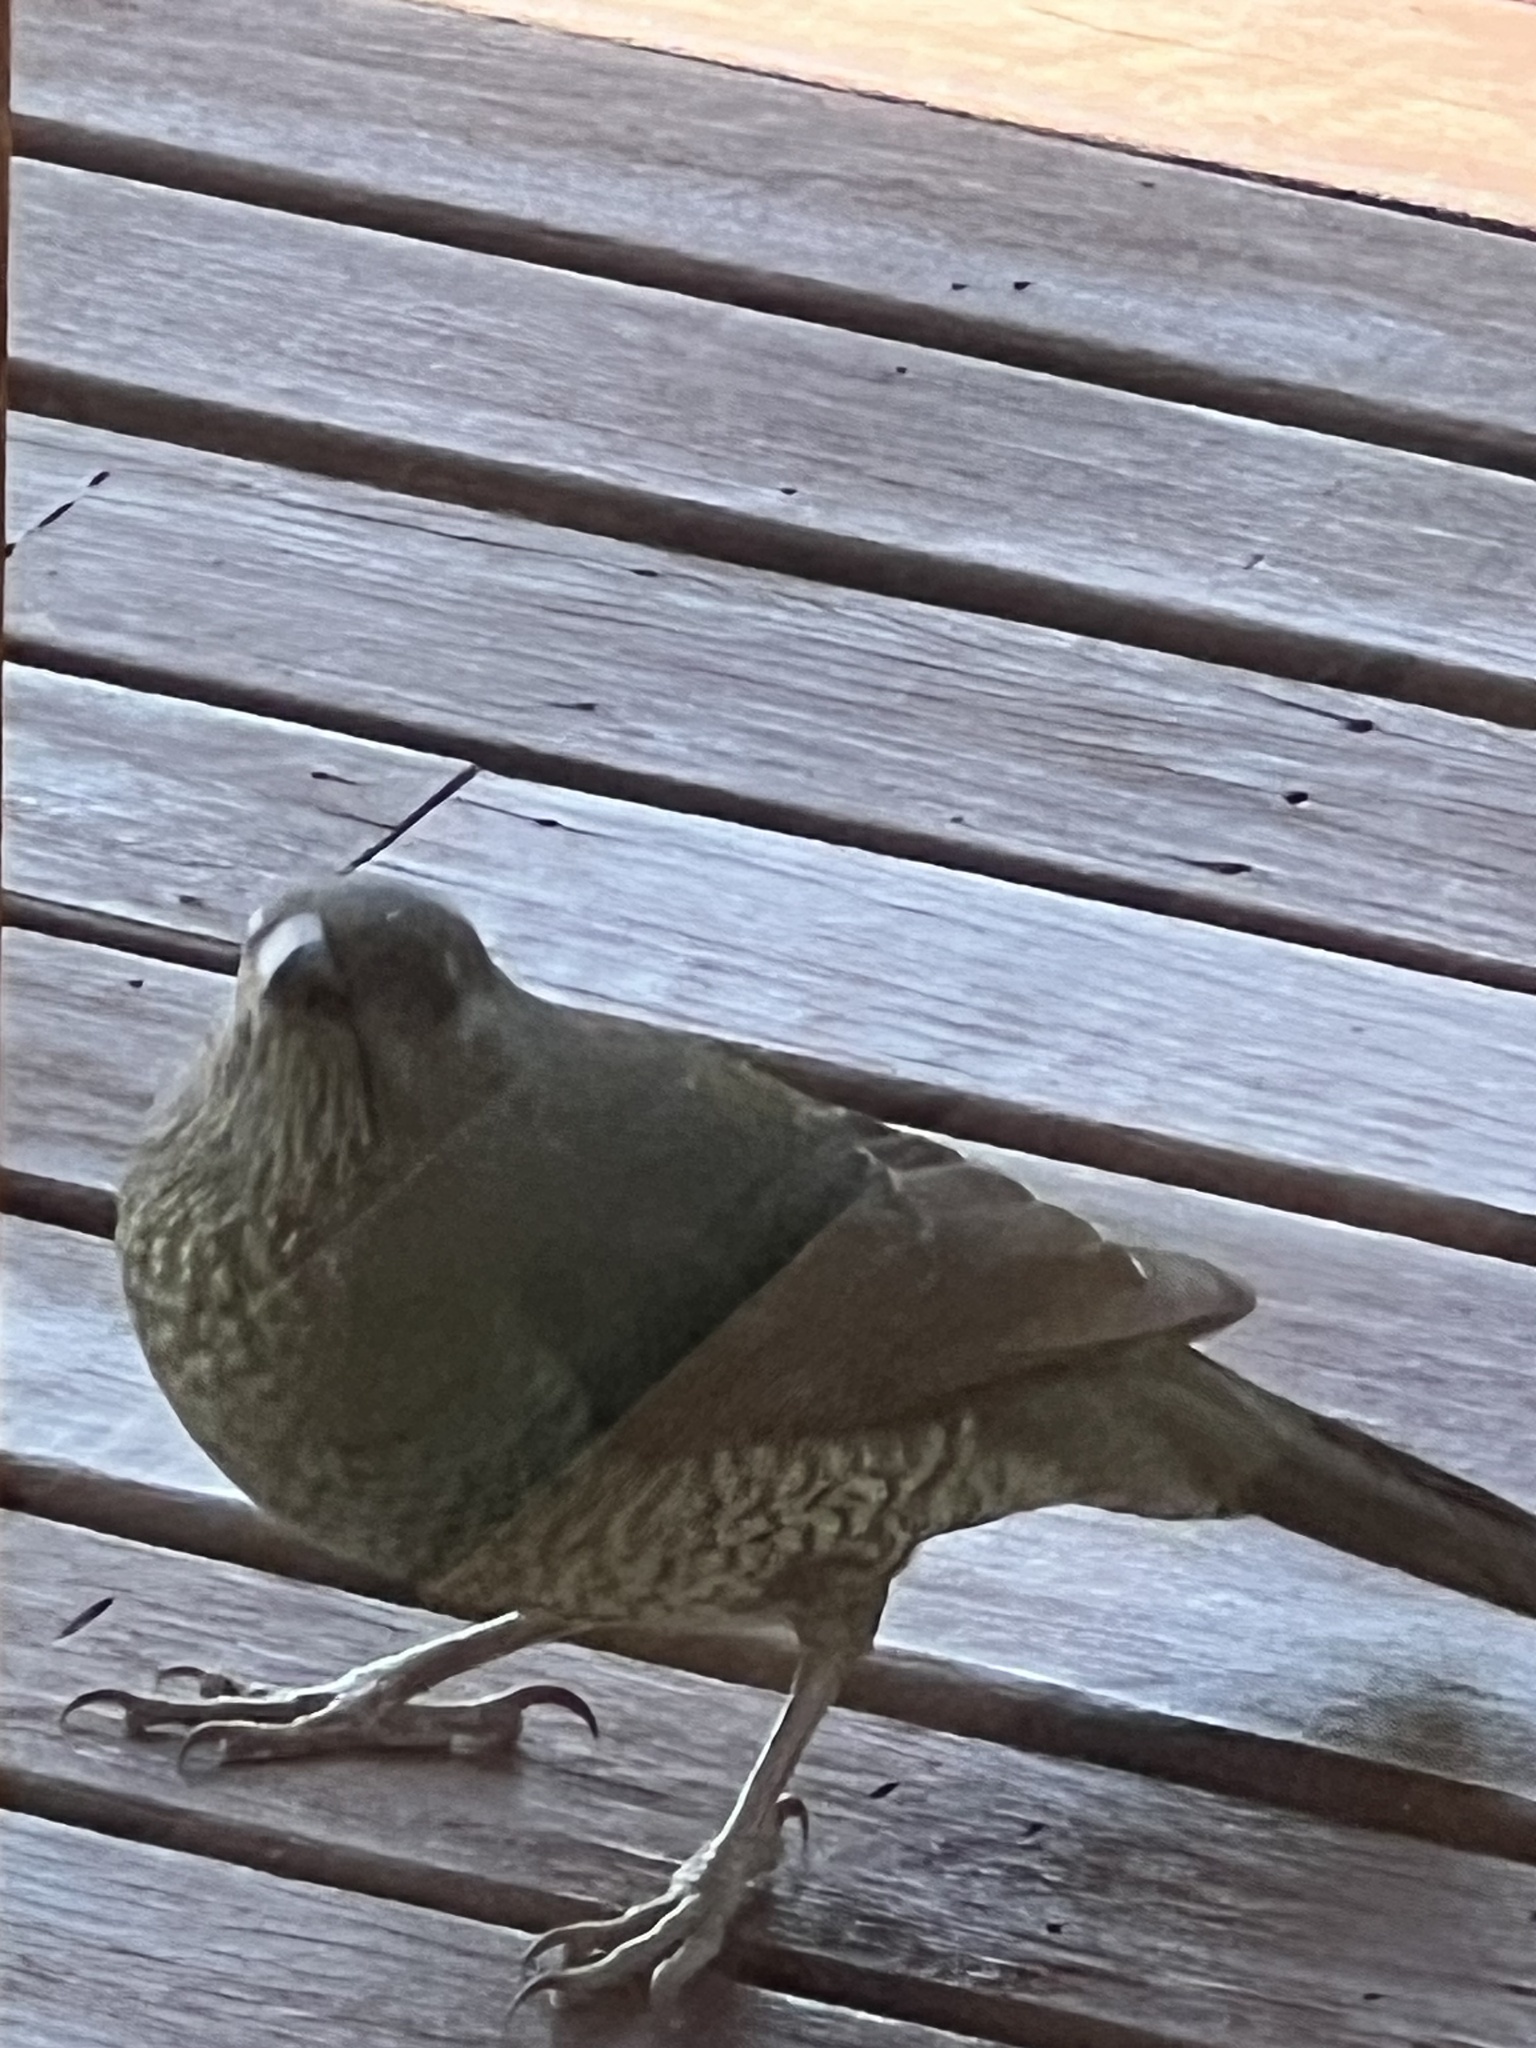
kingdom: Animalia
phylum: Chordata
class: Aves
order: Passeriformes
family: Ptilonorhynchidae
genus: Ptilonorhynchus
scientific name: Ptilonorhynchus violaceus
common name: Satin bowerbird
